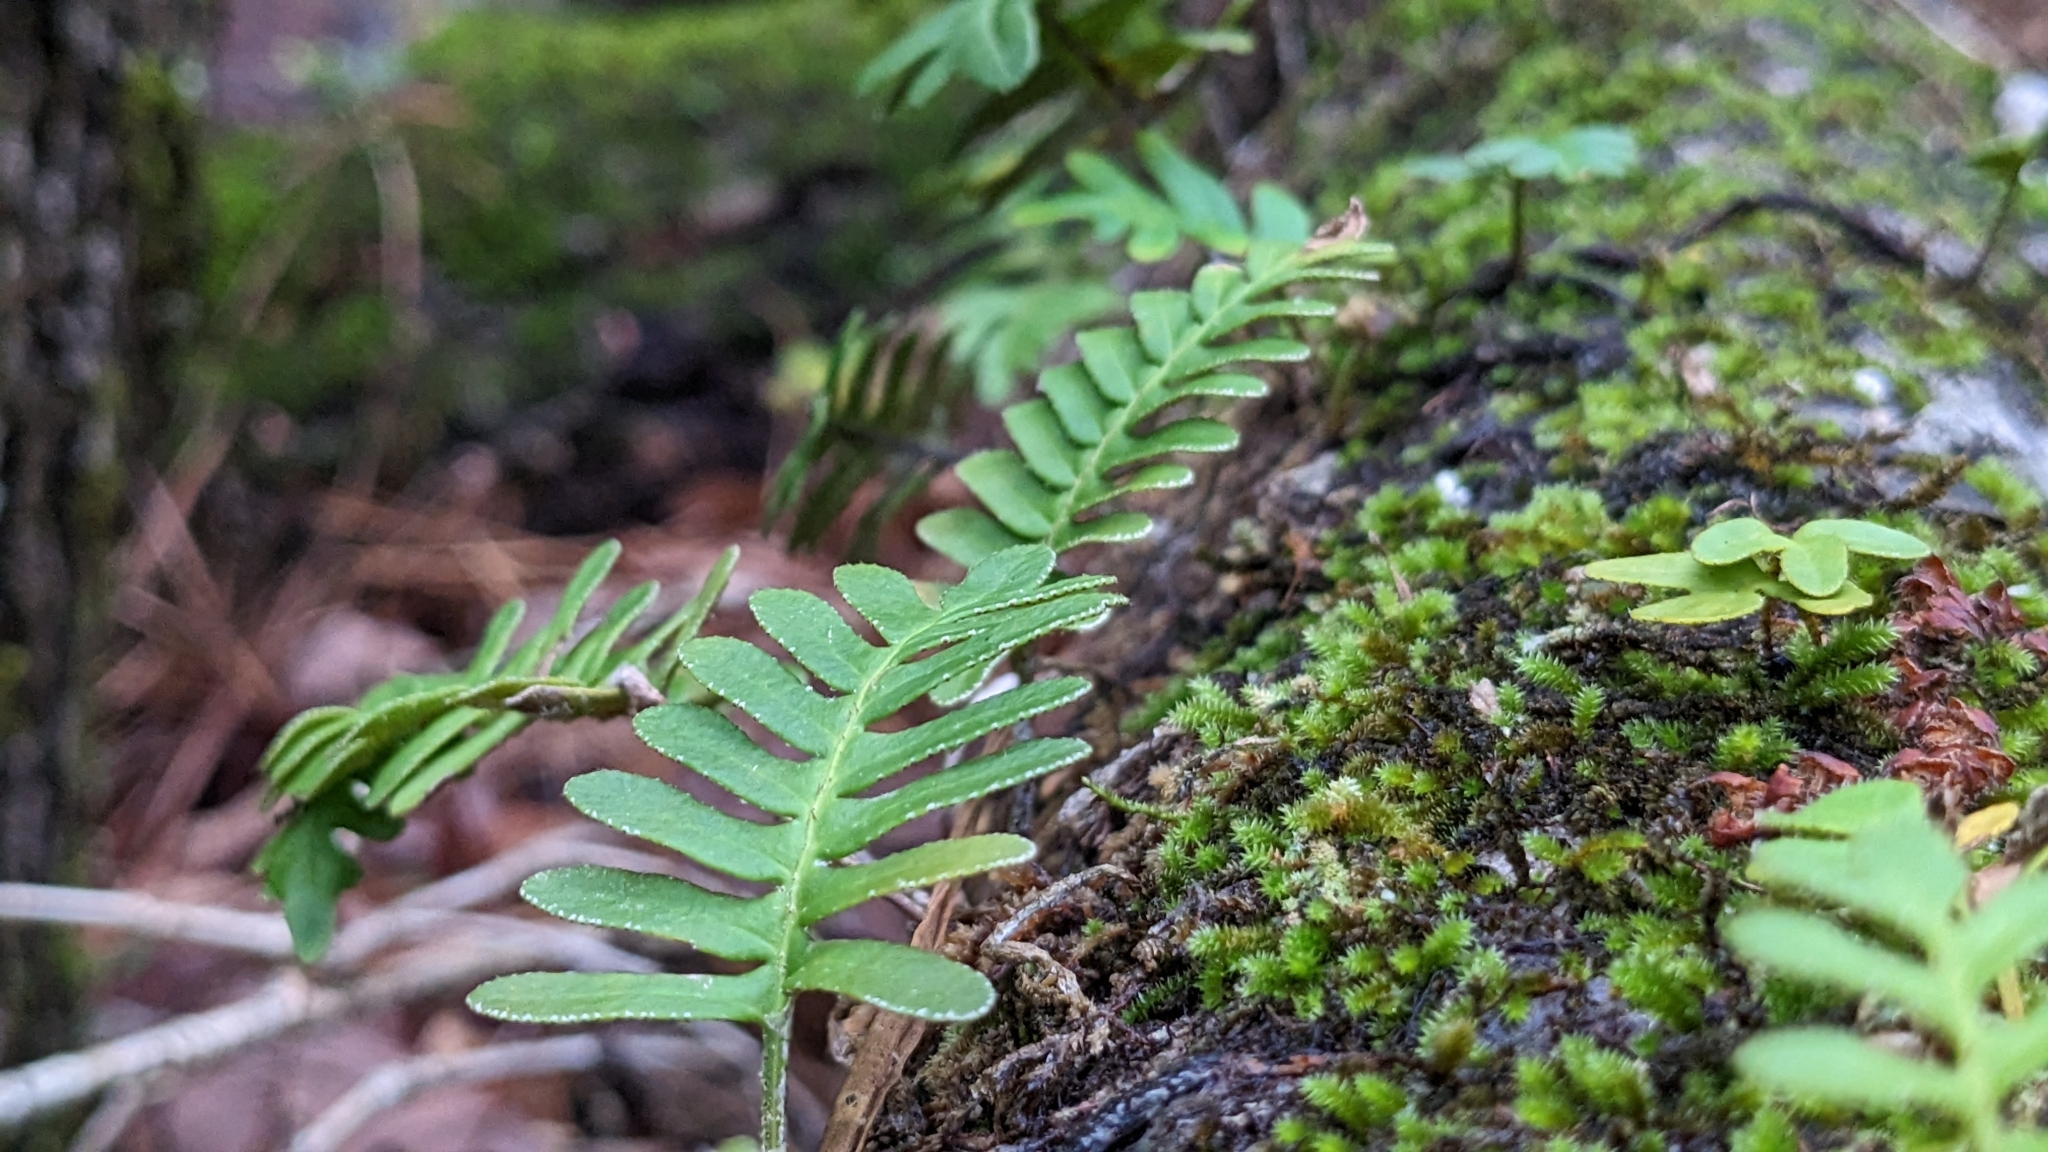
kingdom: Plantae
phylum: Tracheophyta
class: Polypodiopsida
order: Polypodiales
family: Polypodiaceae
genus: Pleopeltis
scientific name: Pleopeltis michauxiana
